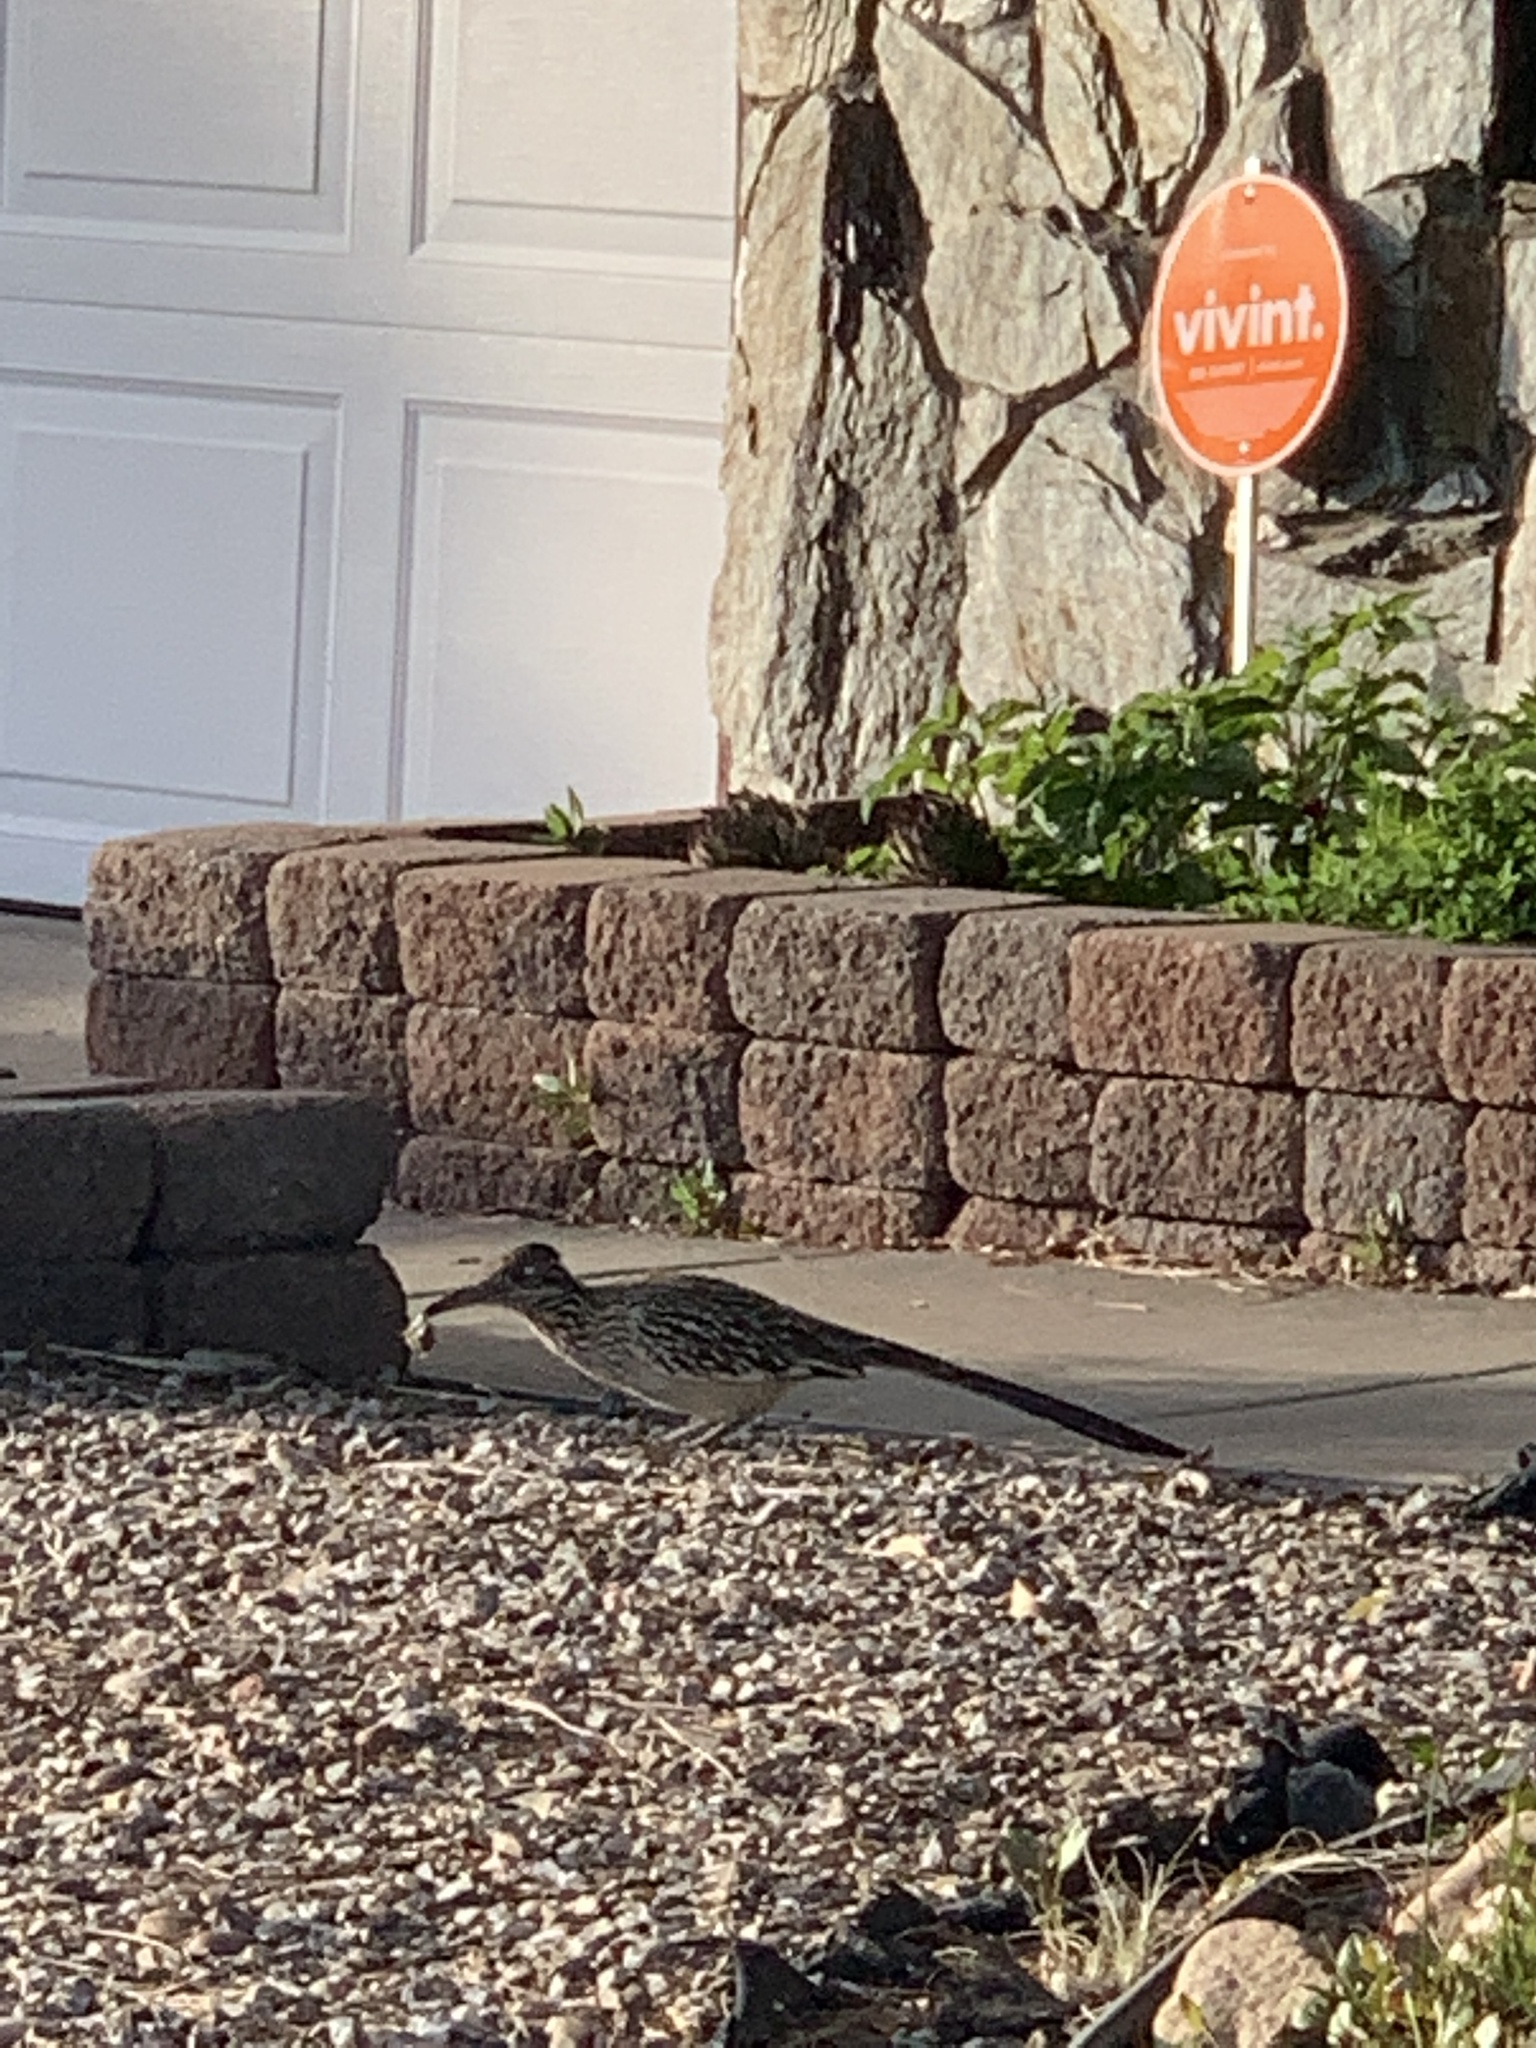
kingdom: Animalia
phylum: Chordata
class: Aves
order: Cuculiformes
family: Cuculidae
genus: Geococcyx
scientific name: Geococcyx californianus
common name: Greater roadrunner
